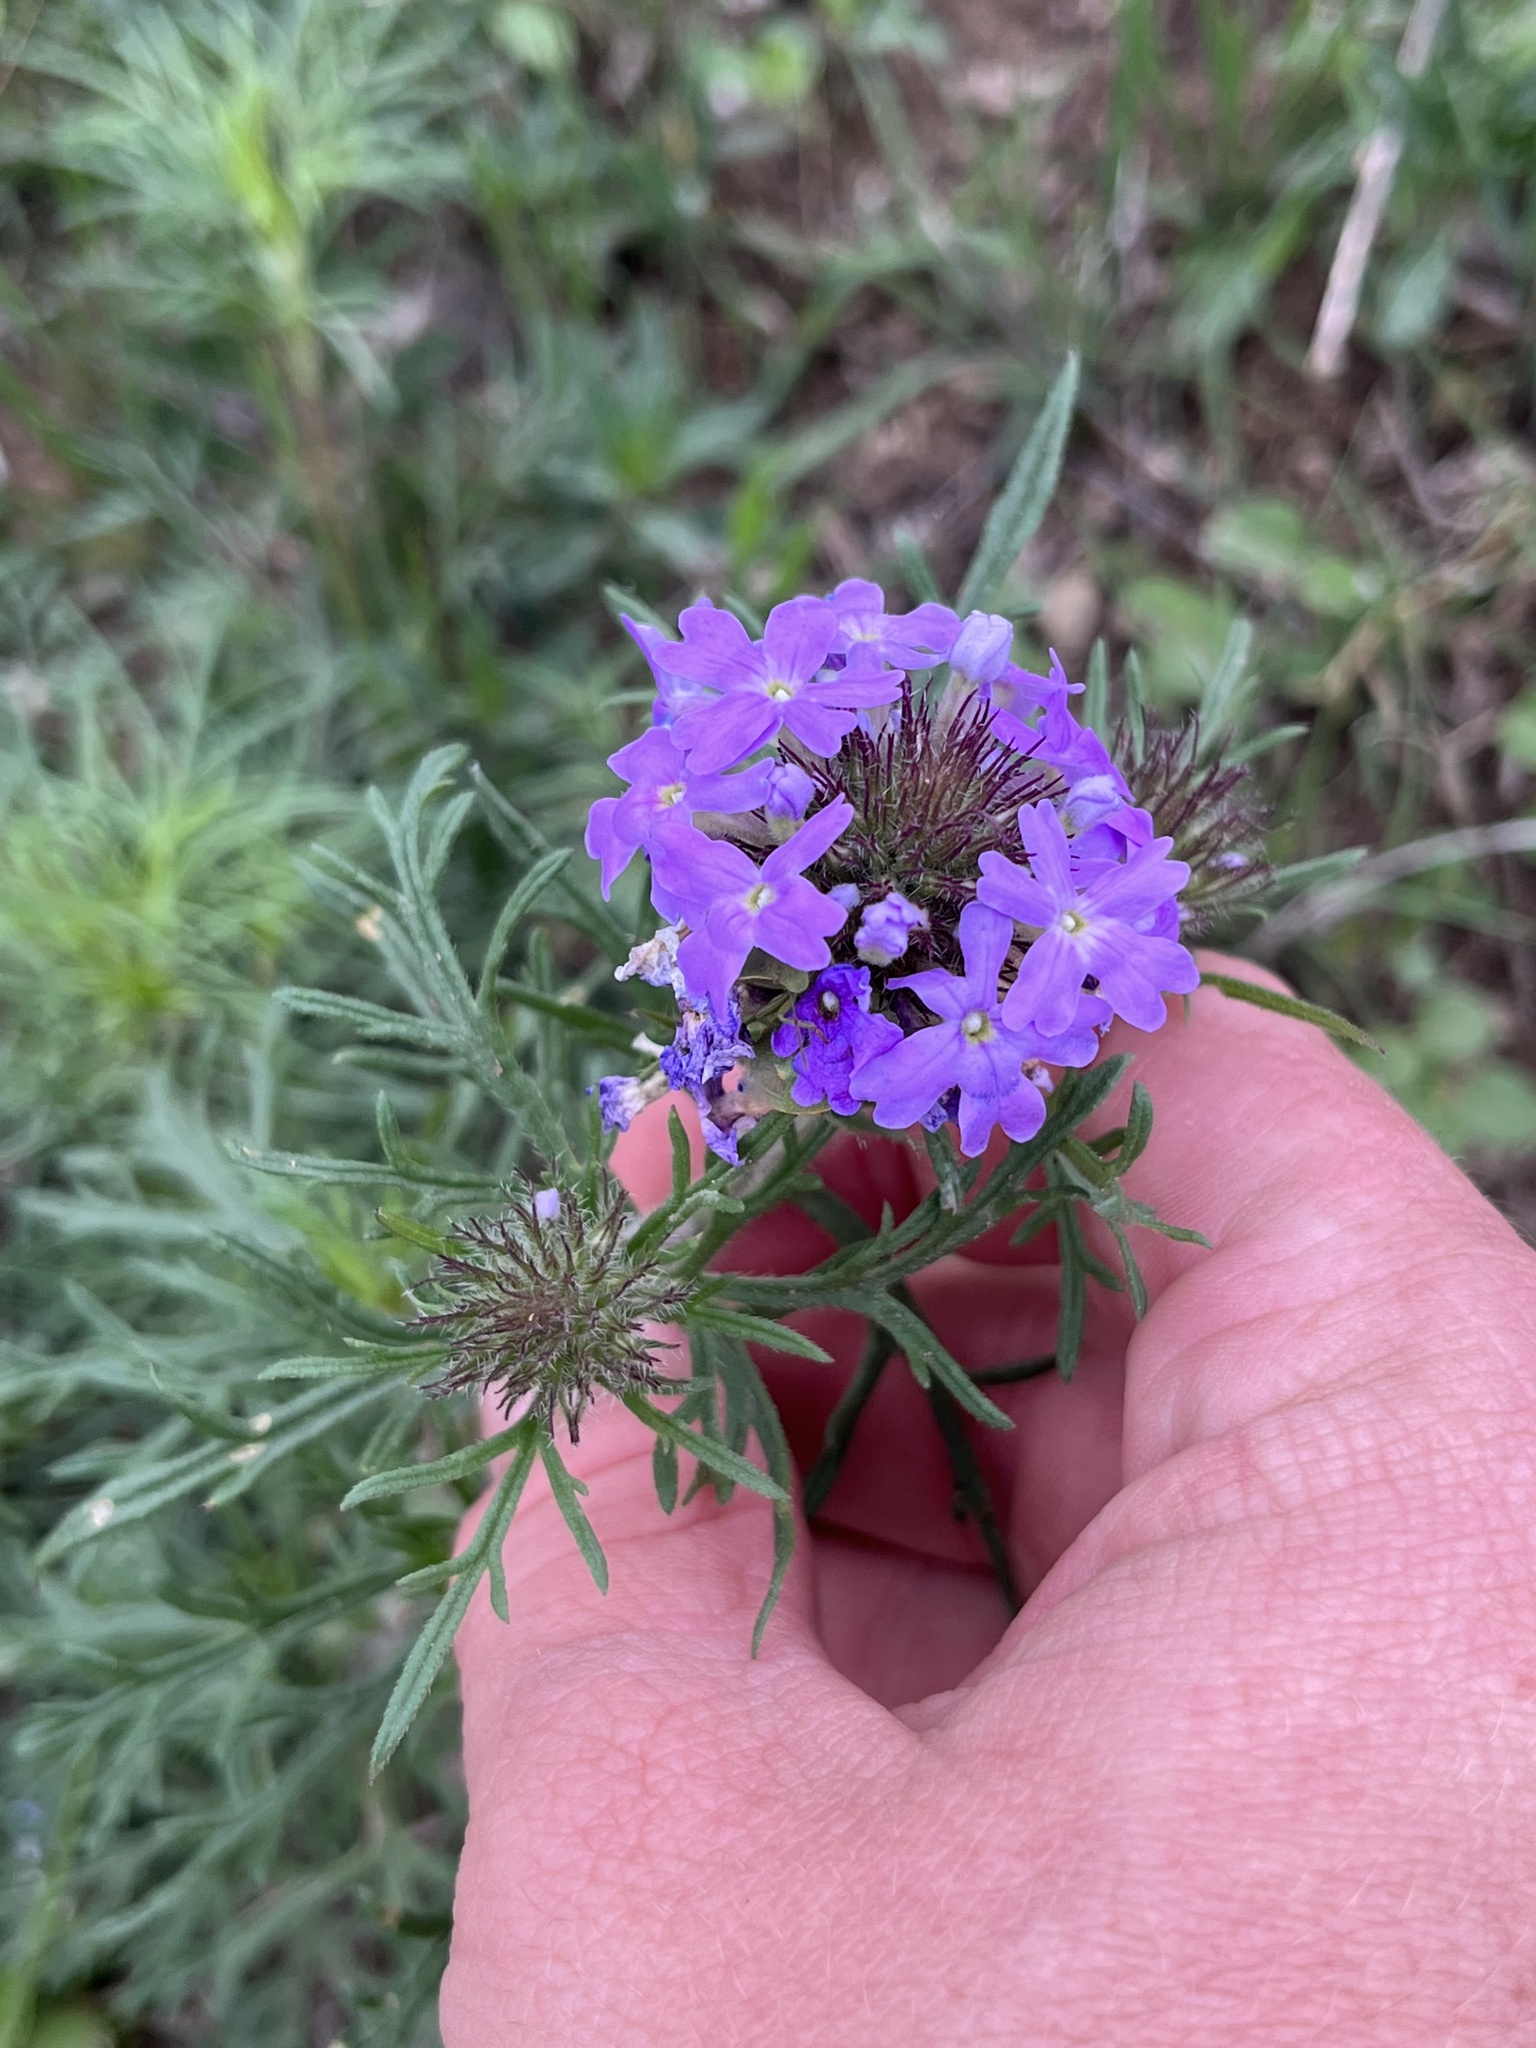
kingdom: Plantae
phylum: Tracheophyta
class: Magnoliopsida
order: Lamiales
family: Verbenaceae
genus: Verbena
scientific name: Verbena bipinnatifida
